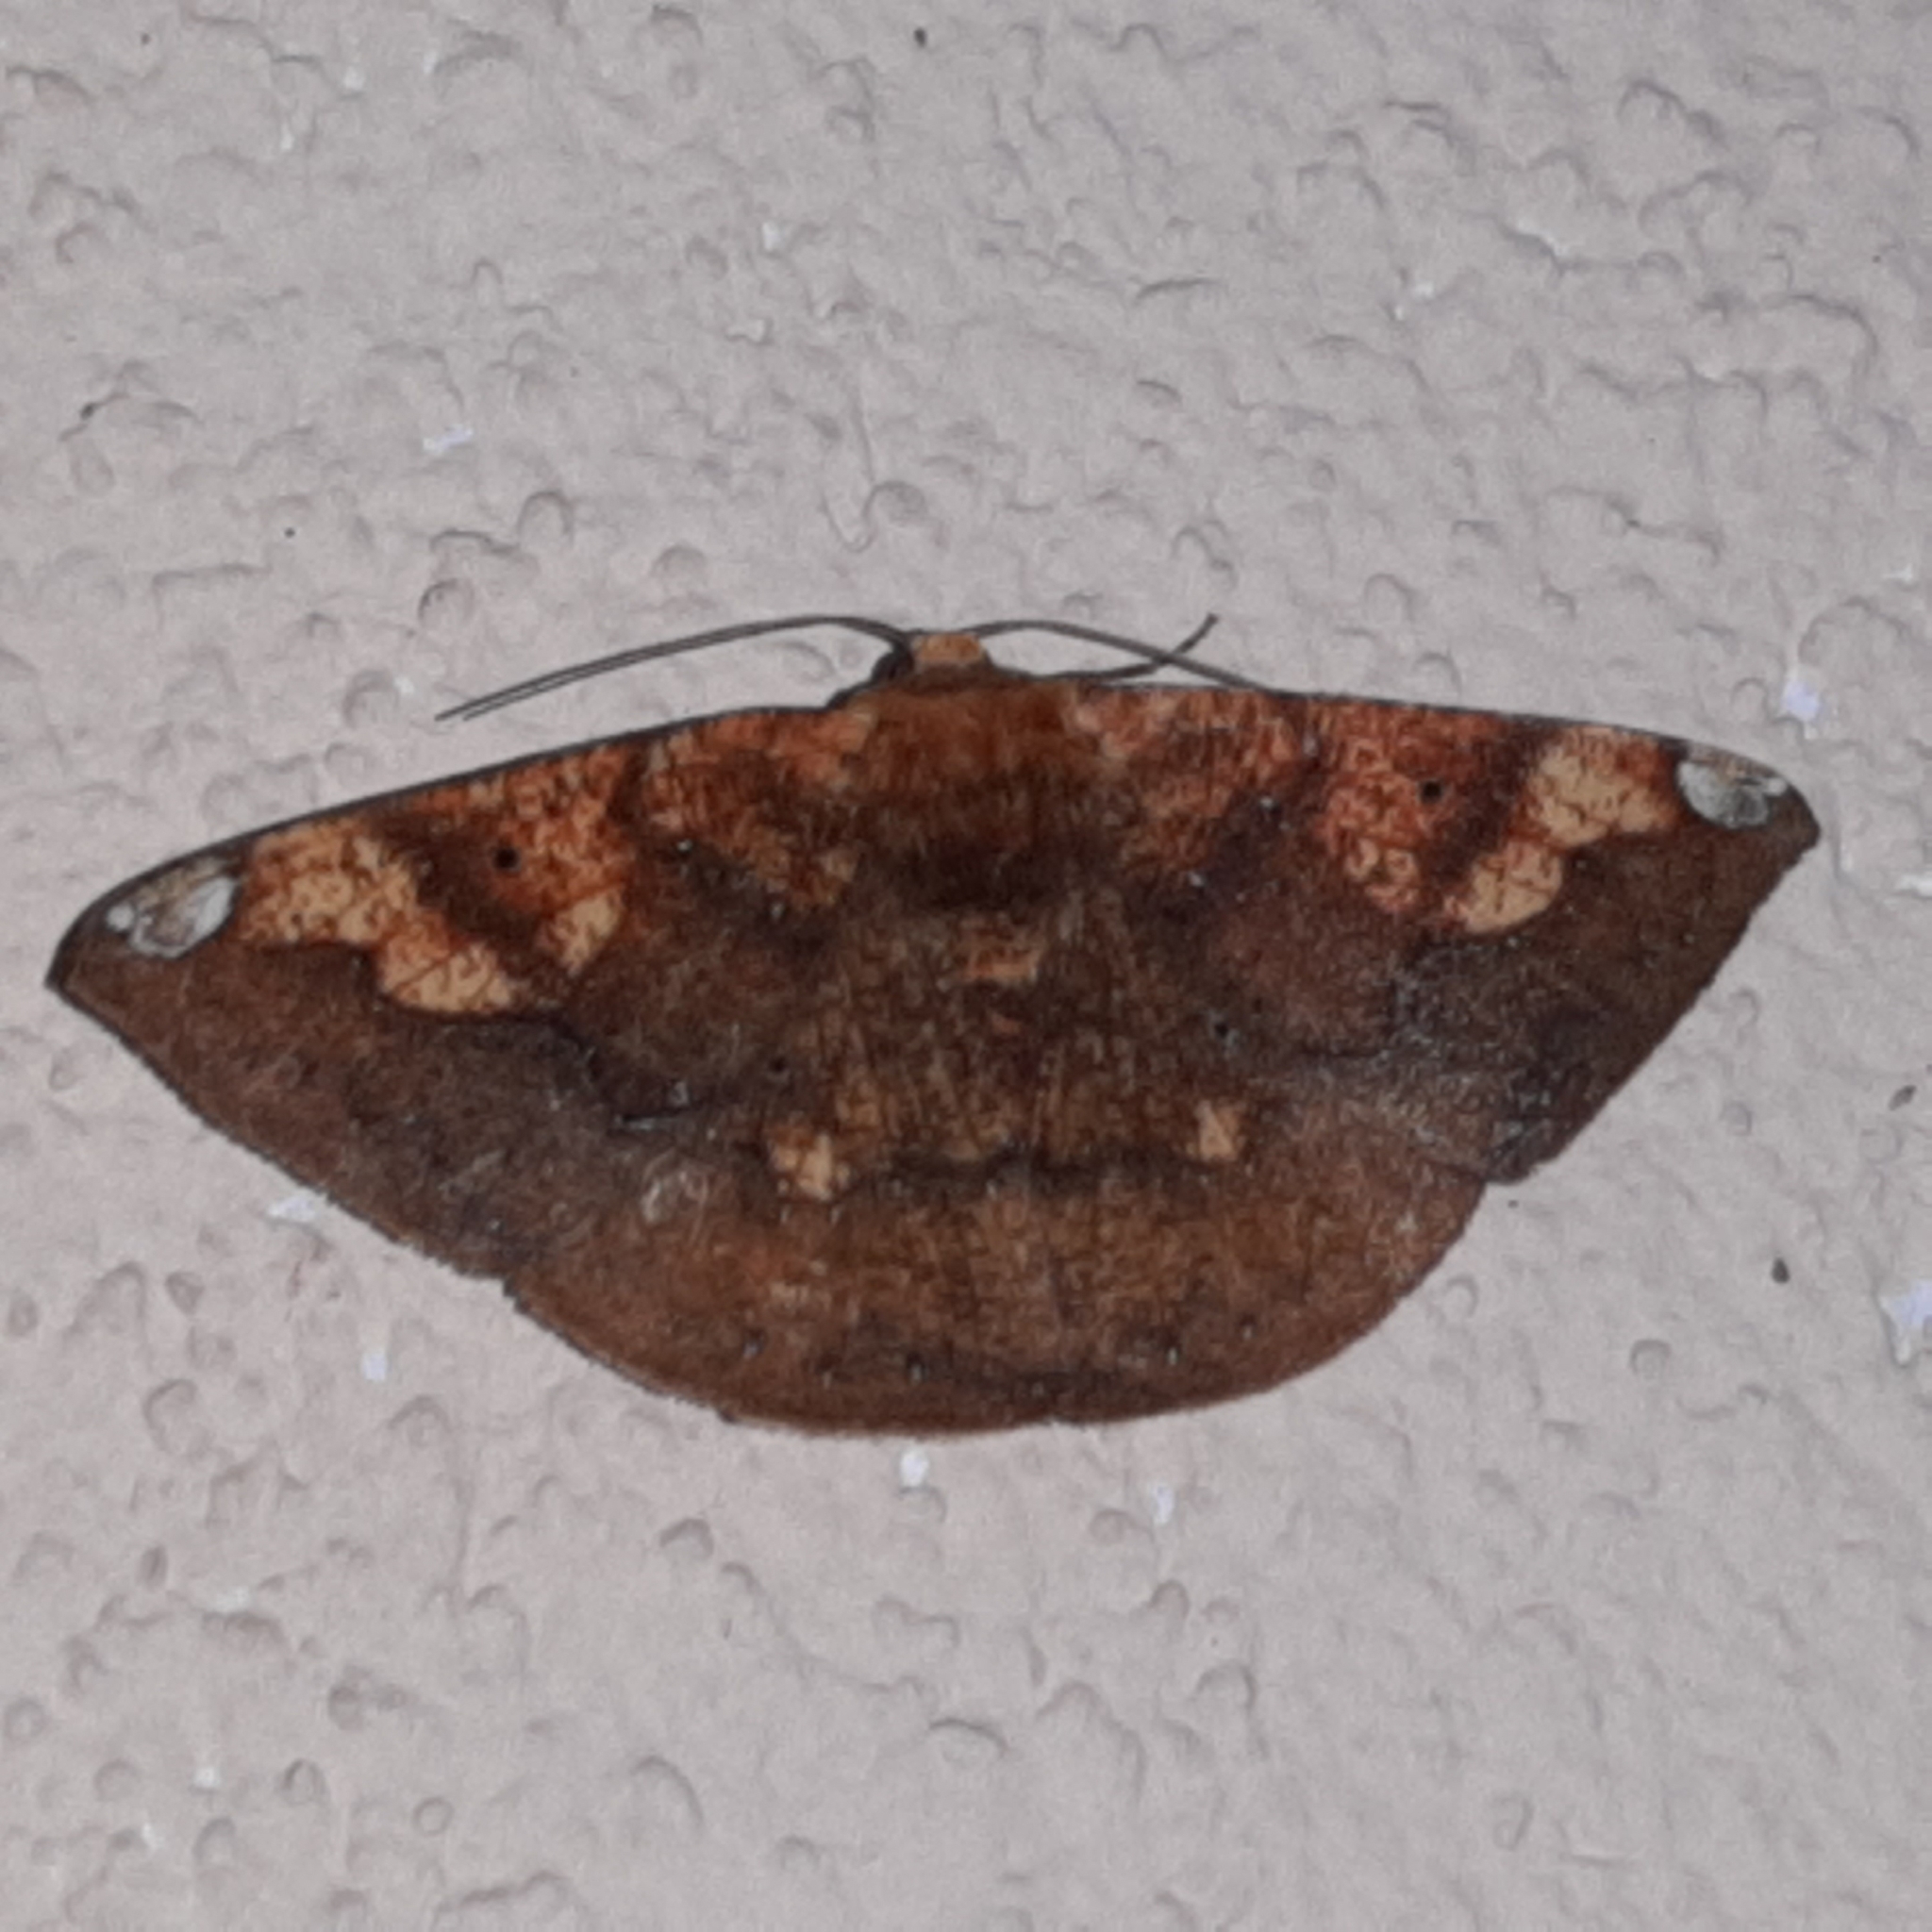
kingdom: Animalia
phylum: Arthropoda
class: Insecta
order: Lepidoptera
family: Geometridae
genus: Acrosemia
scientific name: Acrosemia tigrata
